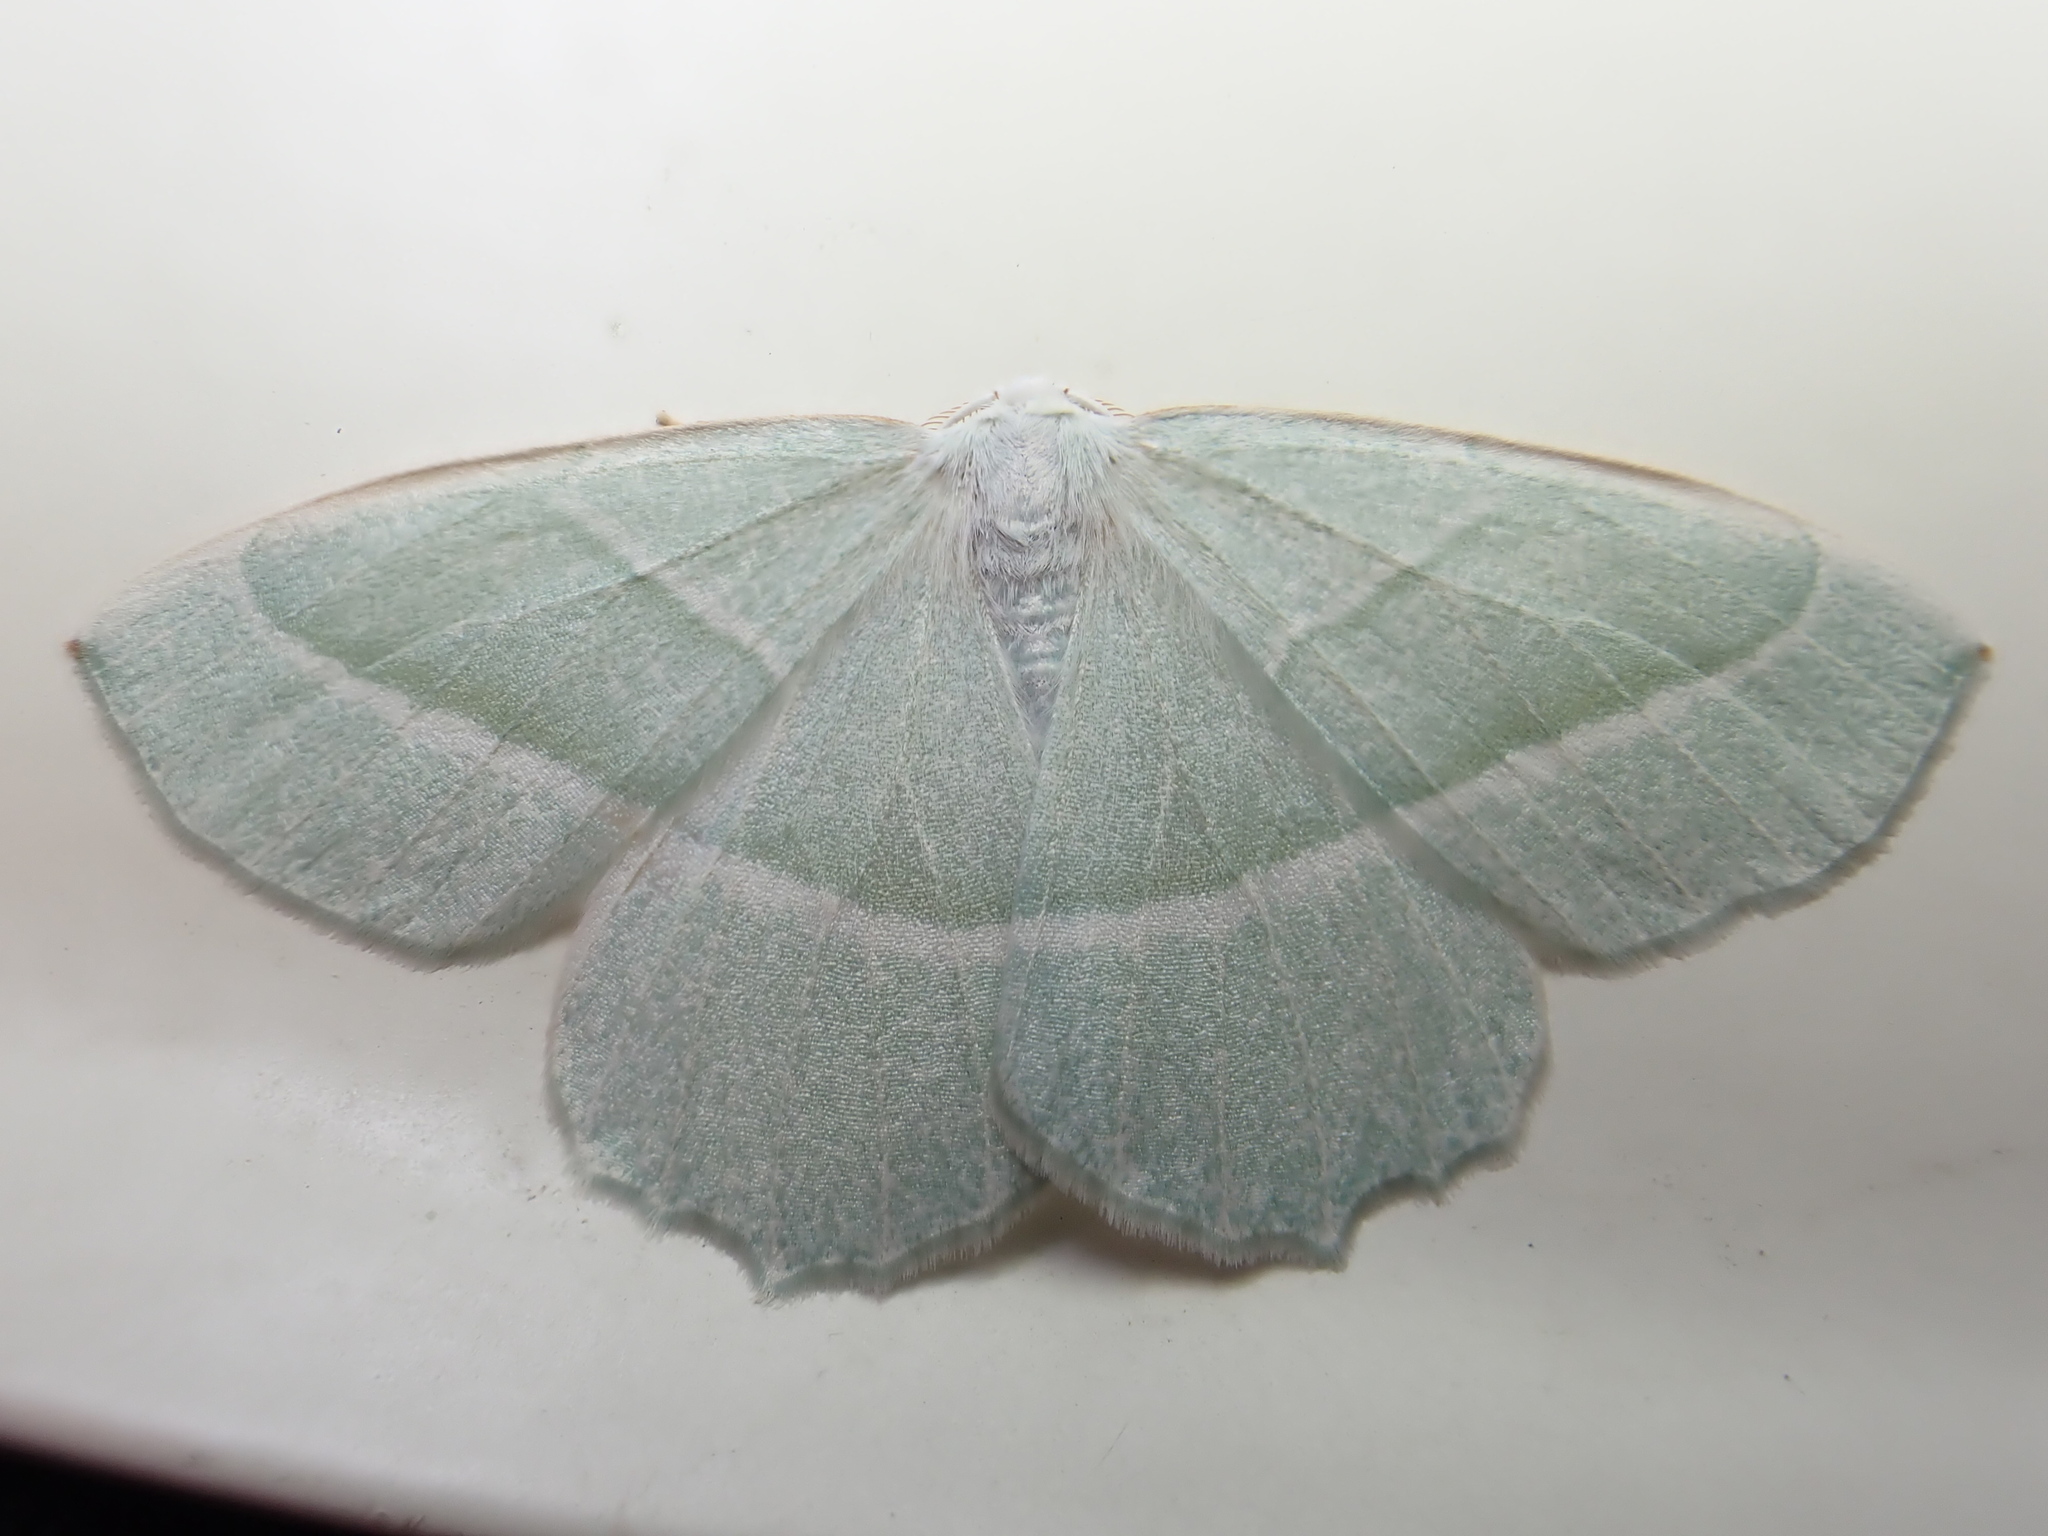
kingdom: Animalia
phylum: Arthropoda
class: Insecta
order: Lepidoptera
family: Geometridae
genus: Campaea
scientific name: Campaea margaritaria
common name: Light emerald
